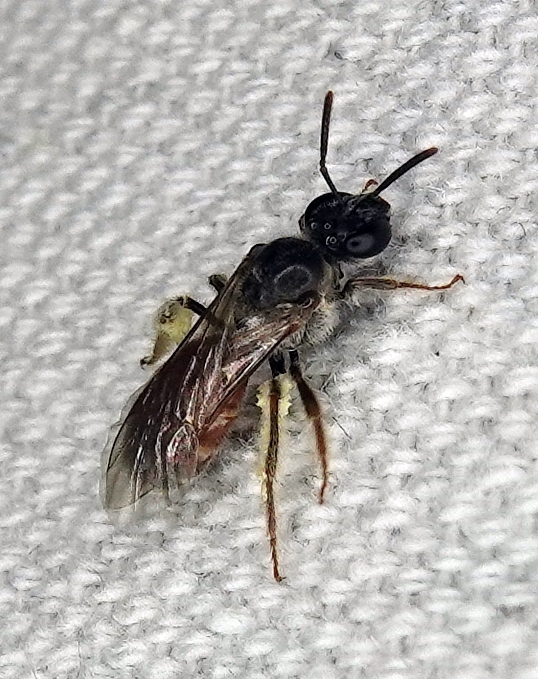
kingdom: Animalia
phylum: Arthropoda
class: Insecta
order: Hymenoptera
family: Halictidae
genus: Lasioglossum
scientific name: Lasioglossum texanum
